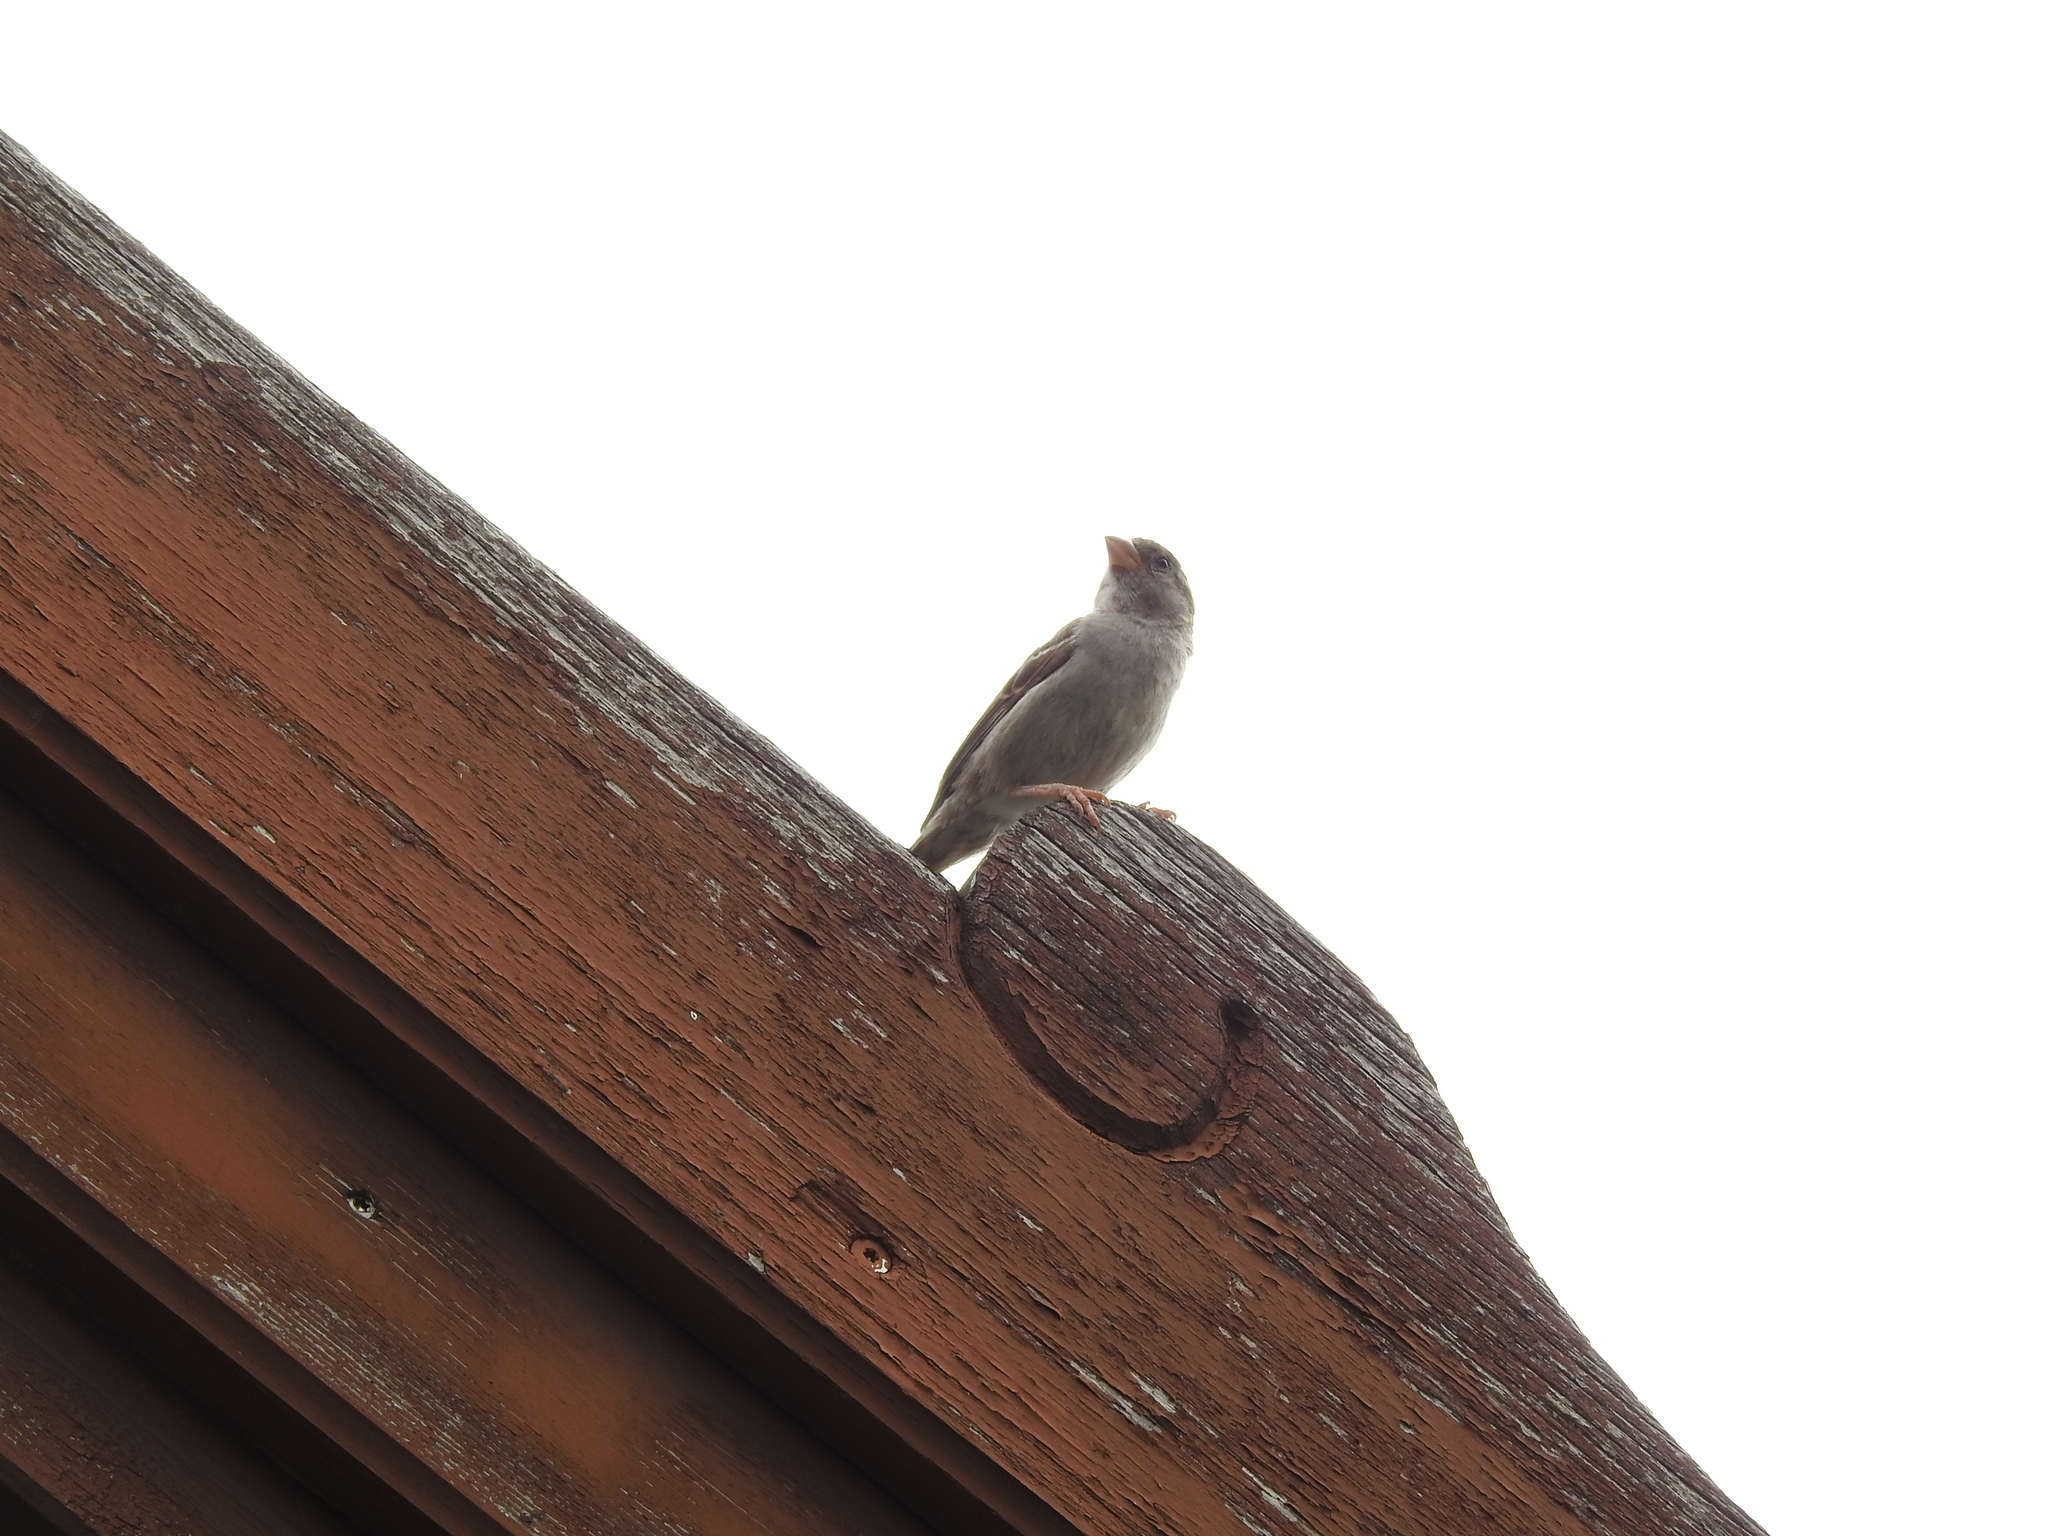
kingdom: Animalia
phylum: Chordata
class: Aves
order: Passeriformes
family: Passeridae
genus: Passer
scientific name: Passer domesticus
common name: House sparrow
